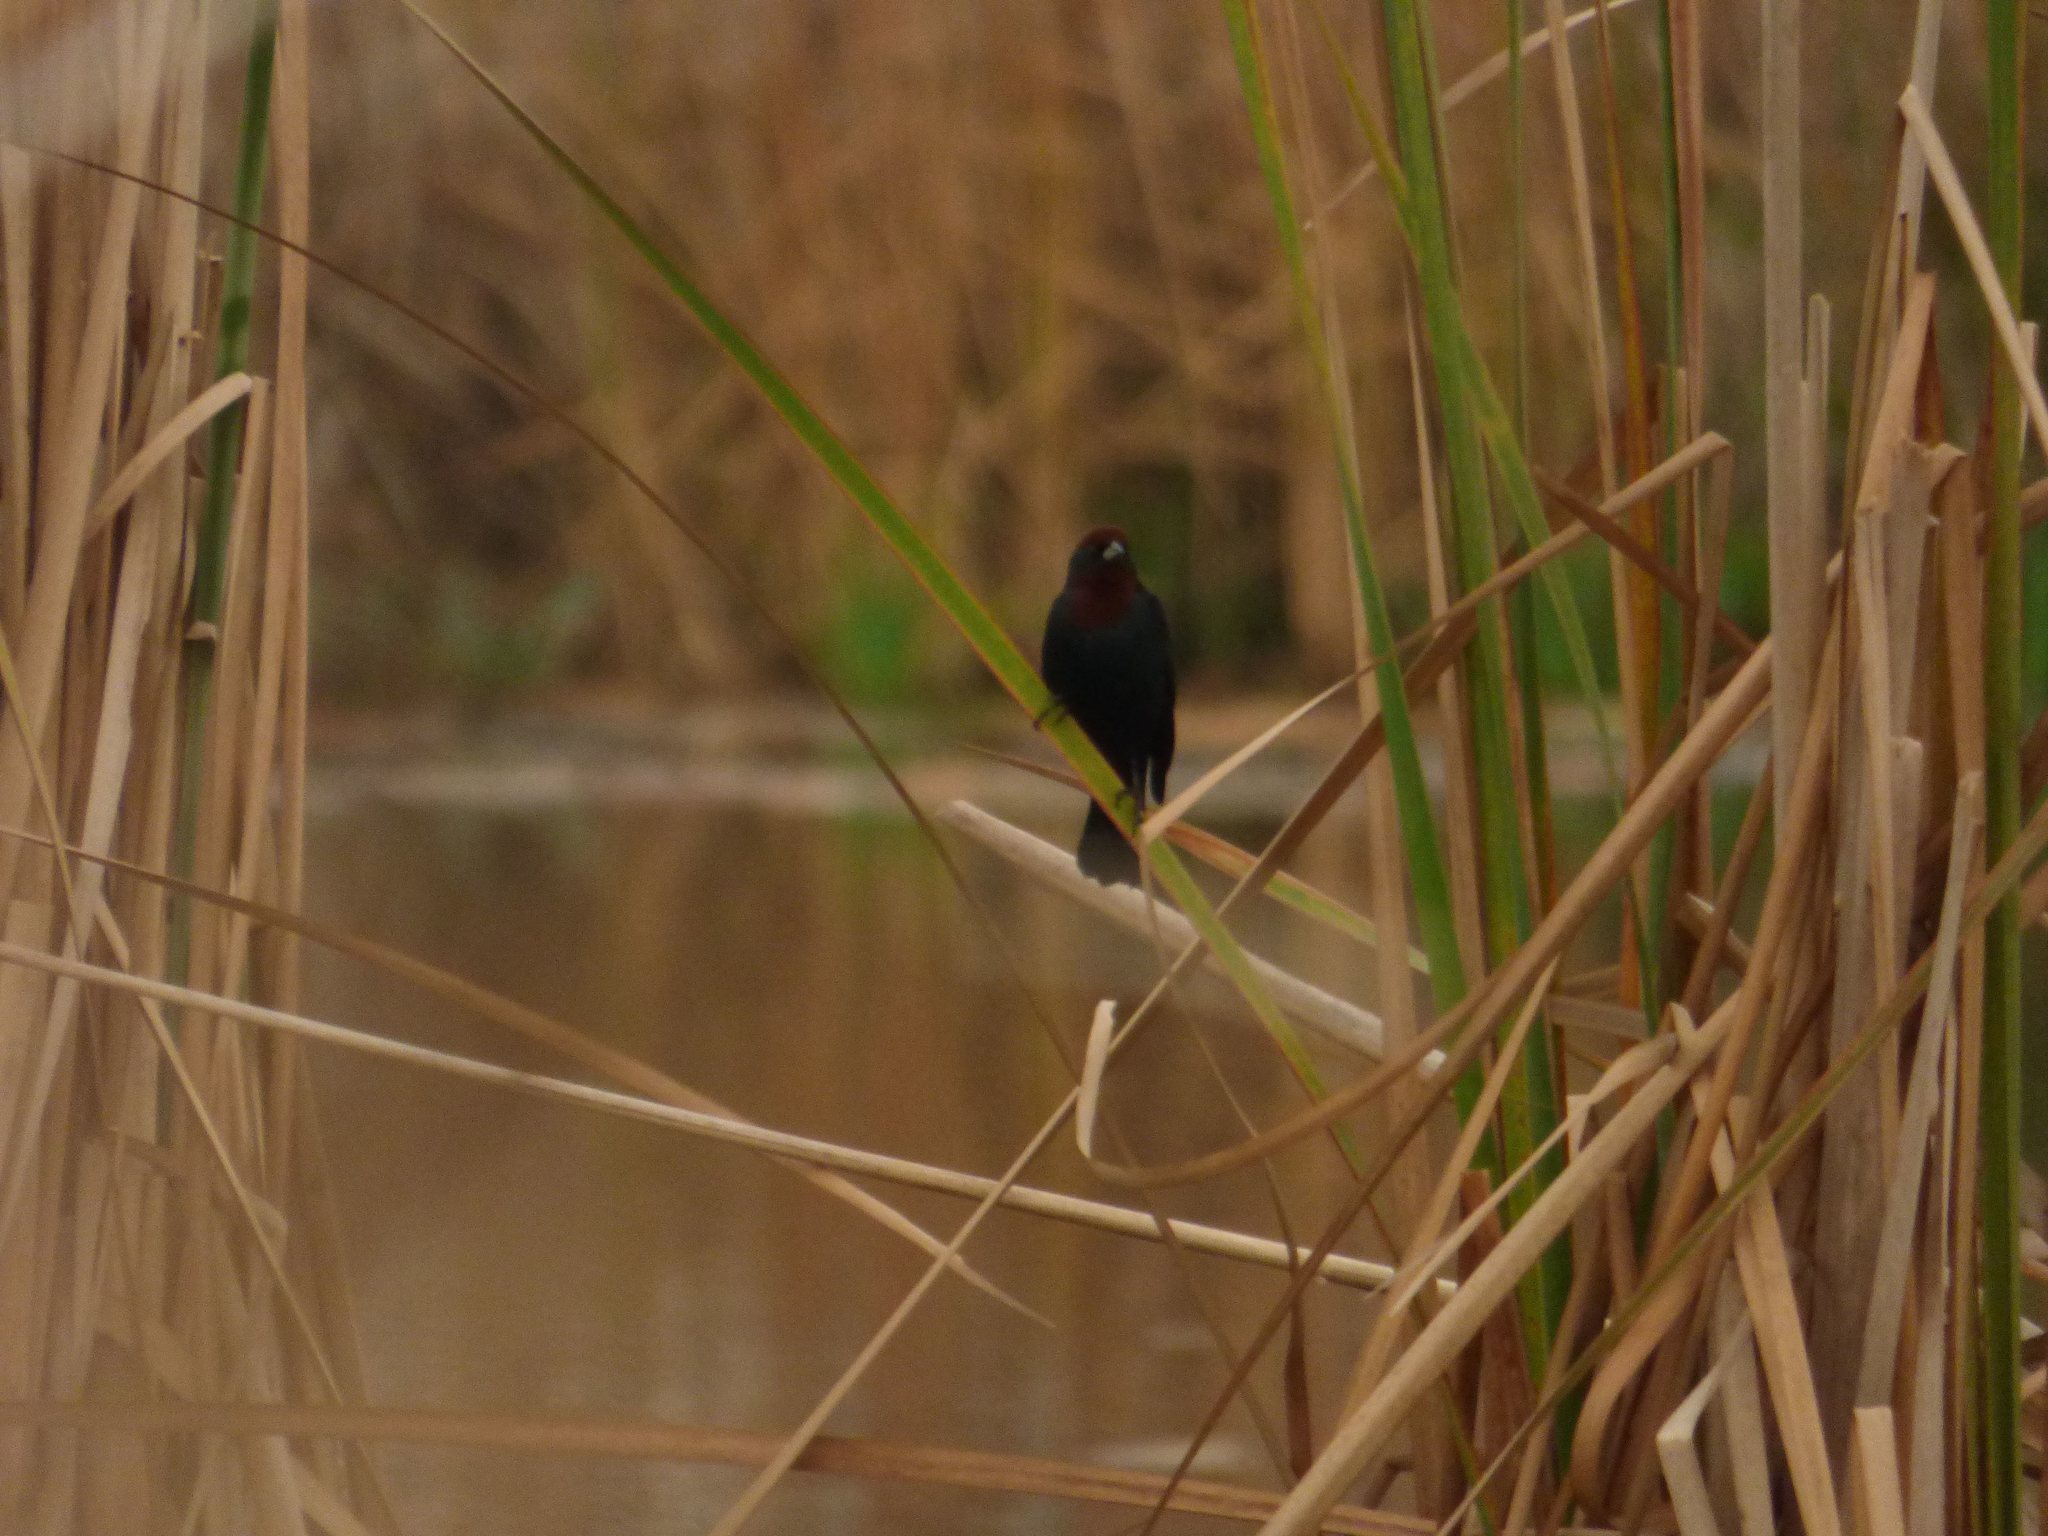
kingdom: Animalia
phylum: Chordata
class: Aves
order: Passeriformes
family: Icteridae
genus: Chrysomus
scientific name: Chrysomus ruficapillus
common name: Chestnut-capped blackbird
